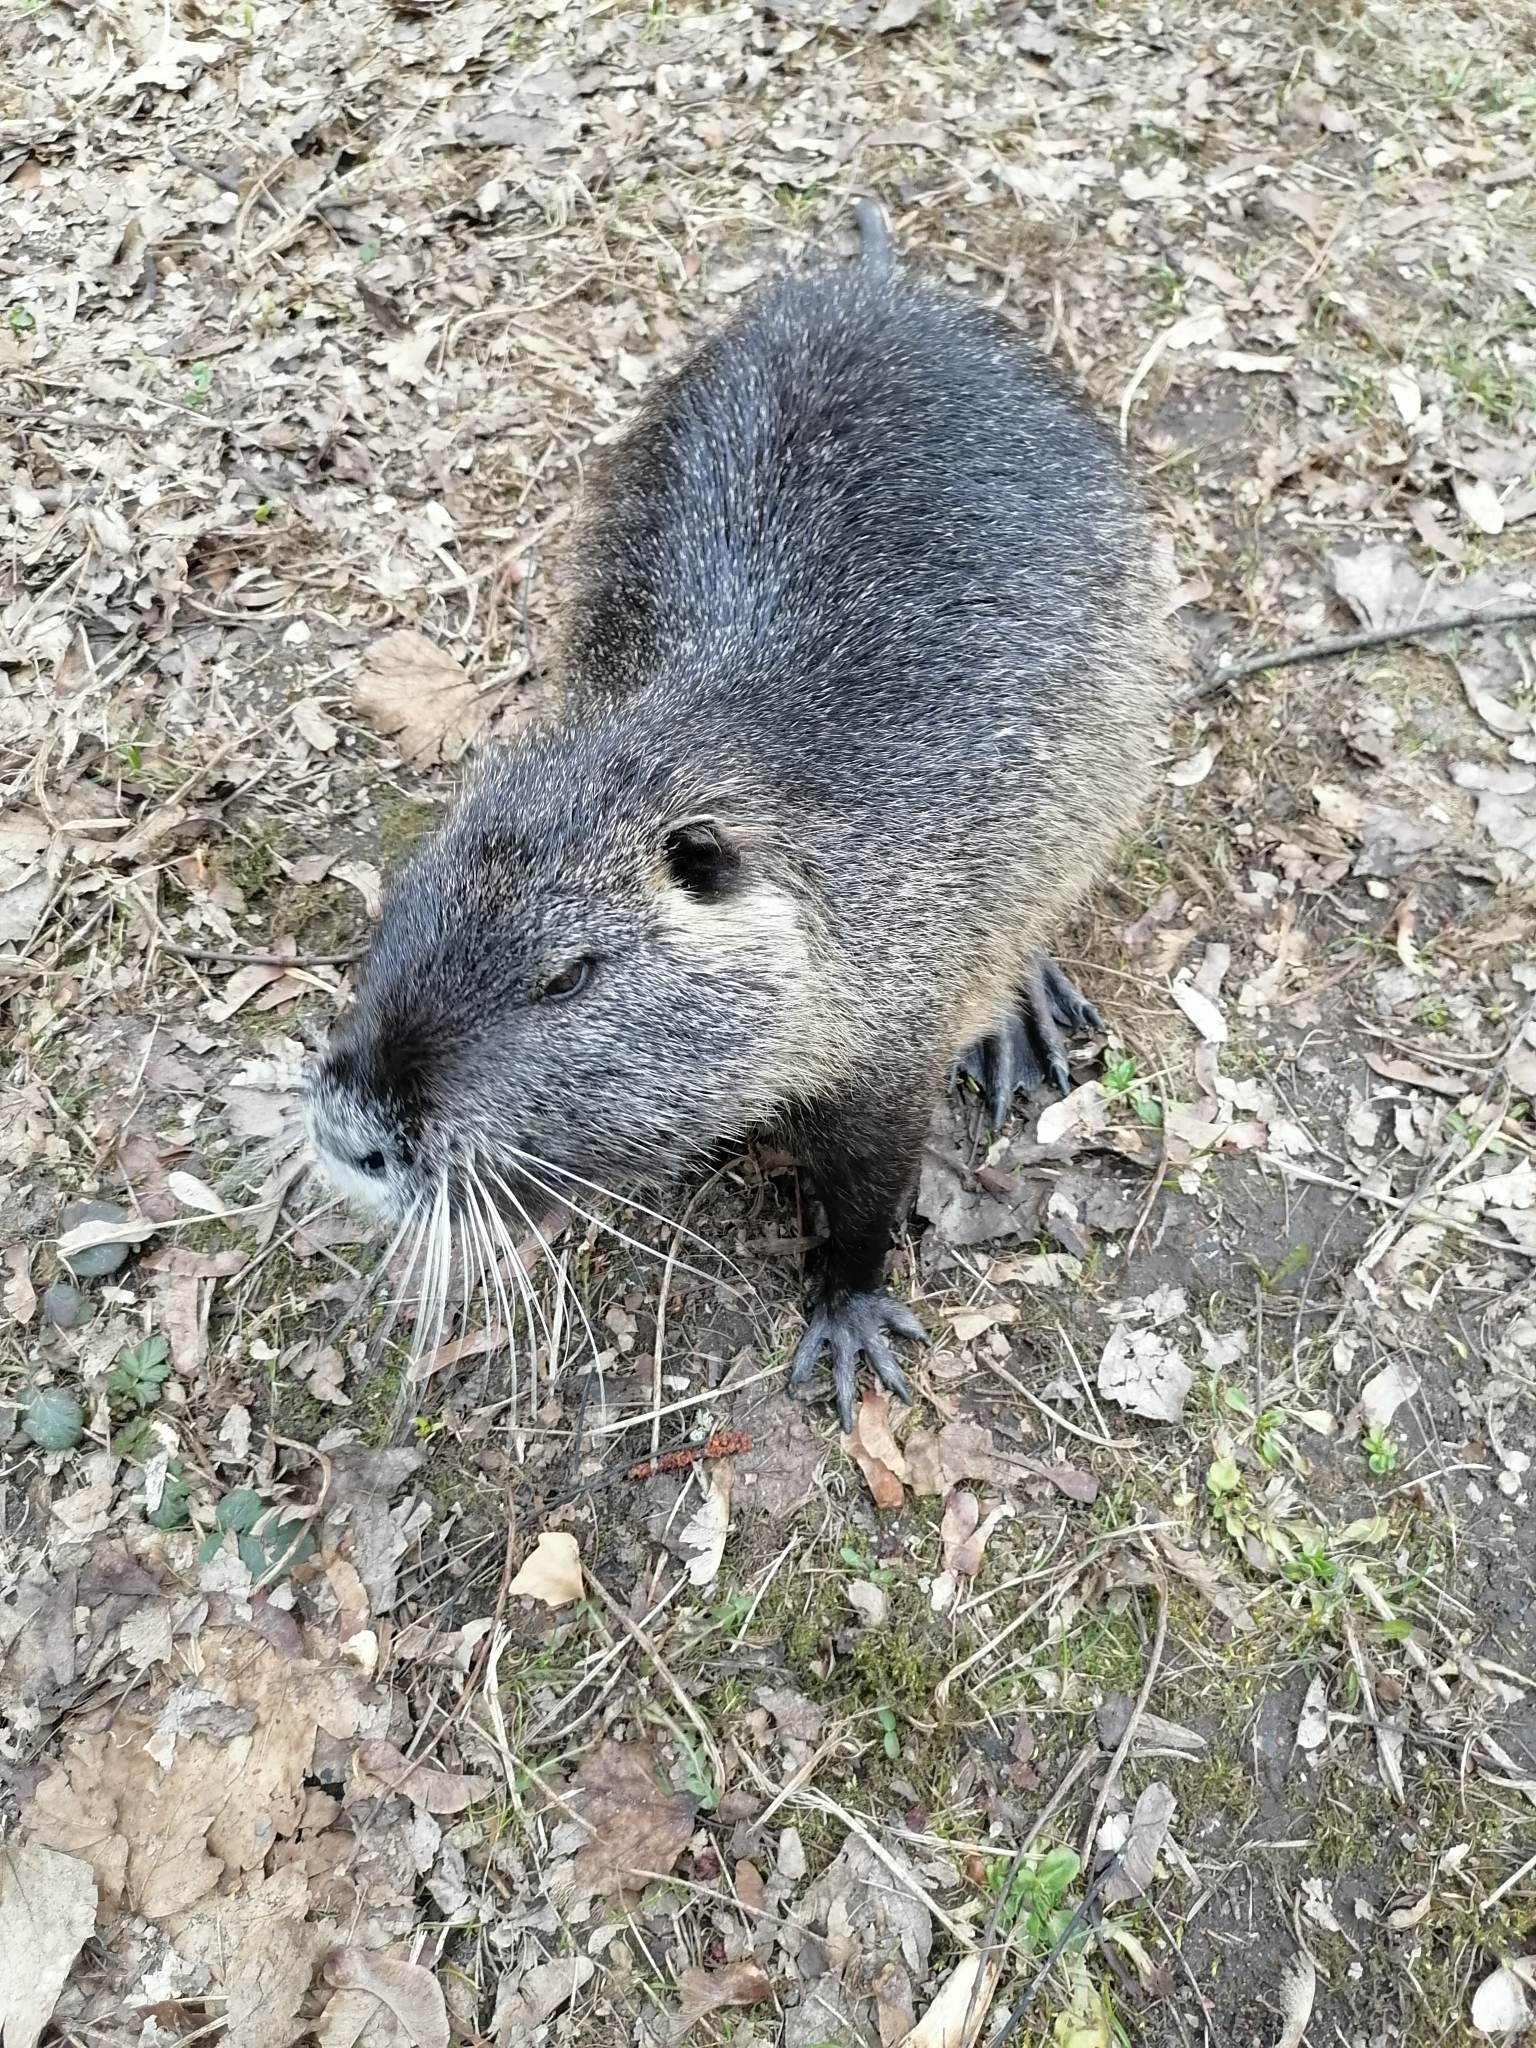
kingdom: Animalia
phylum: Chordata
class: Mammalia
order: Rodentia
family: Myocastoridae
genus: Myocastor
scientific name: Myocastor coypus
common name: Coypu
